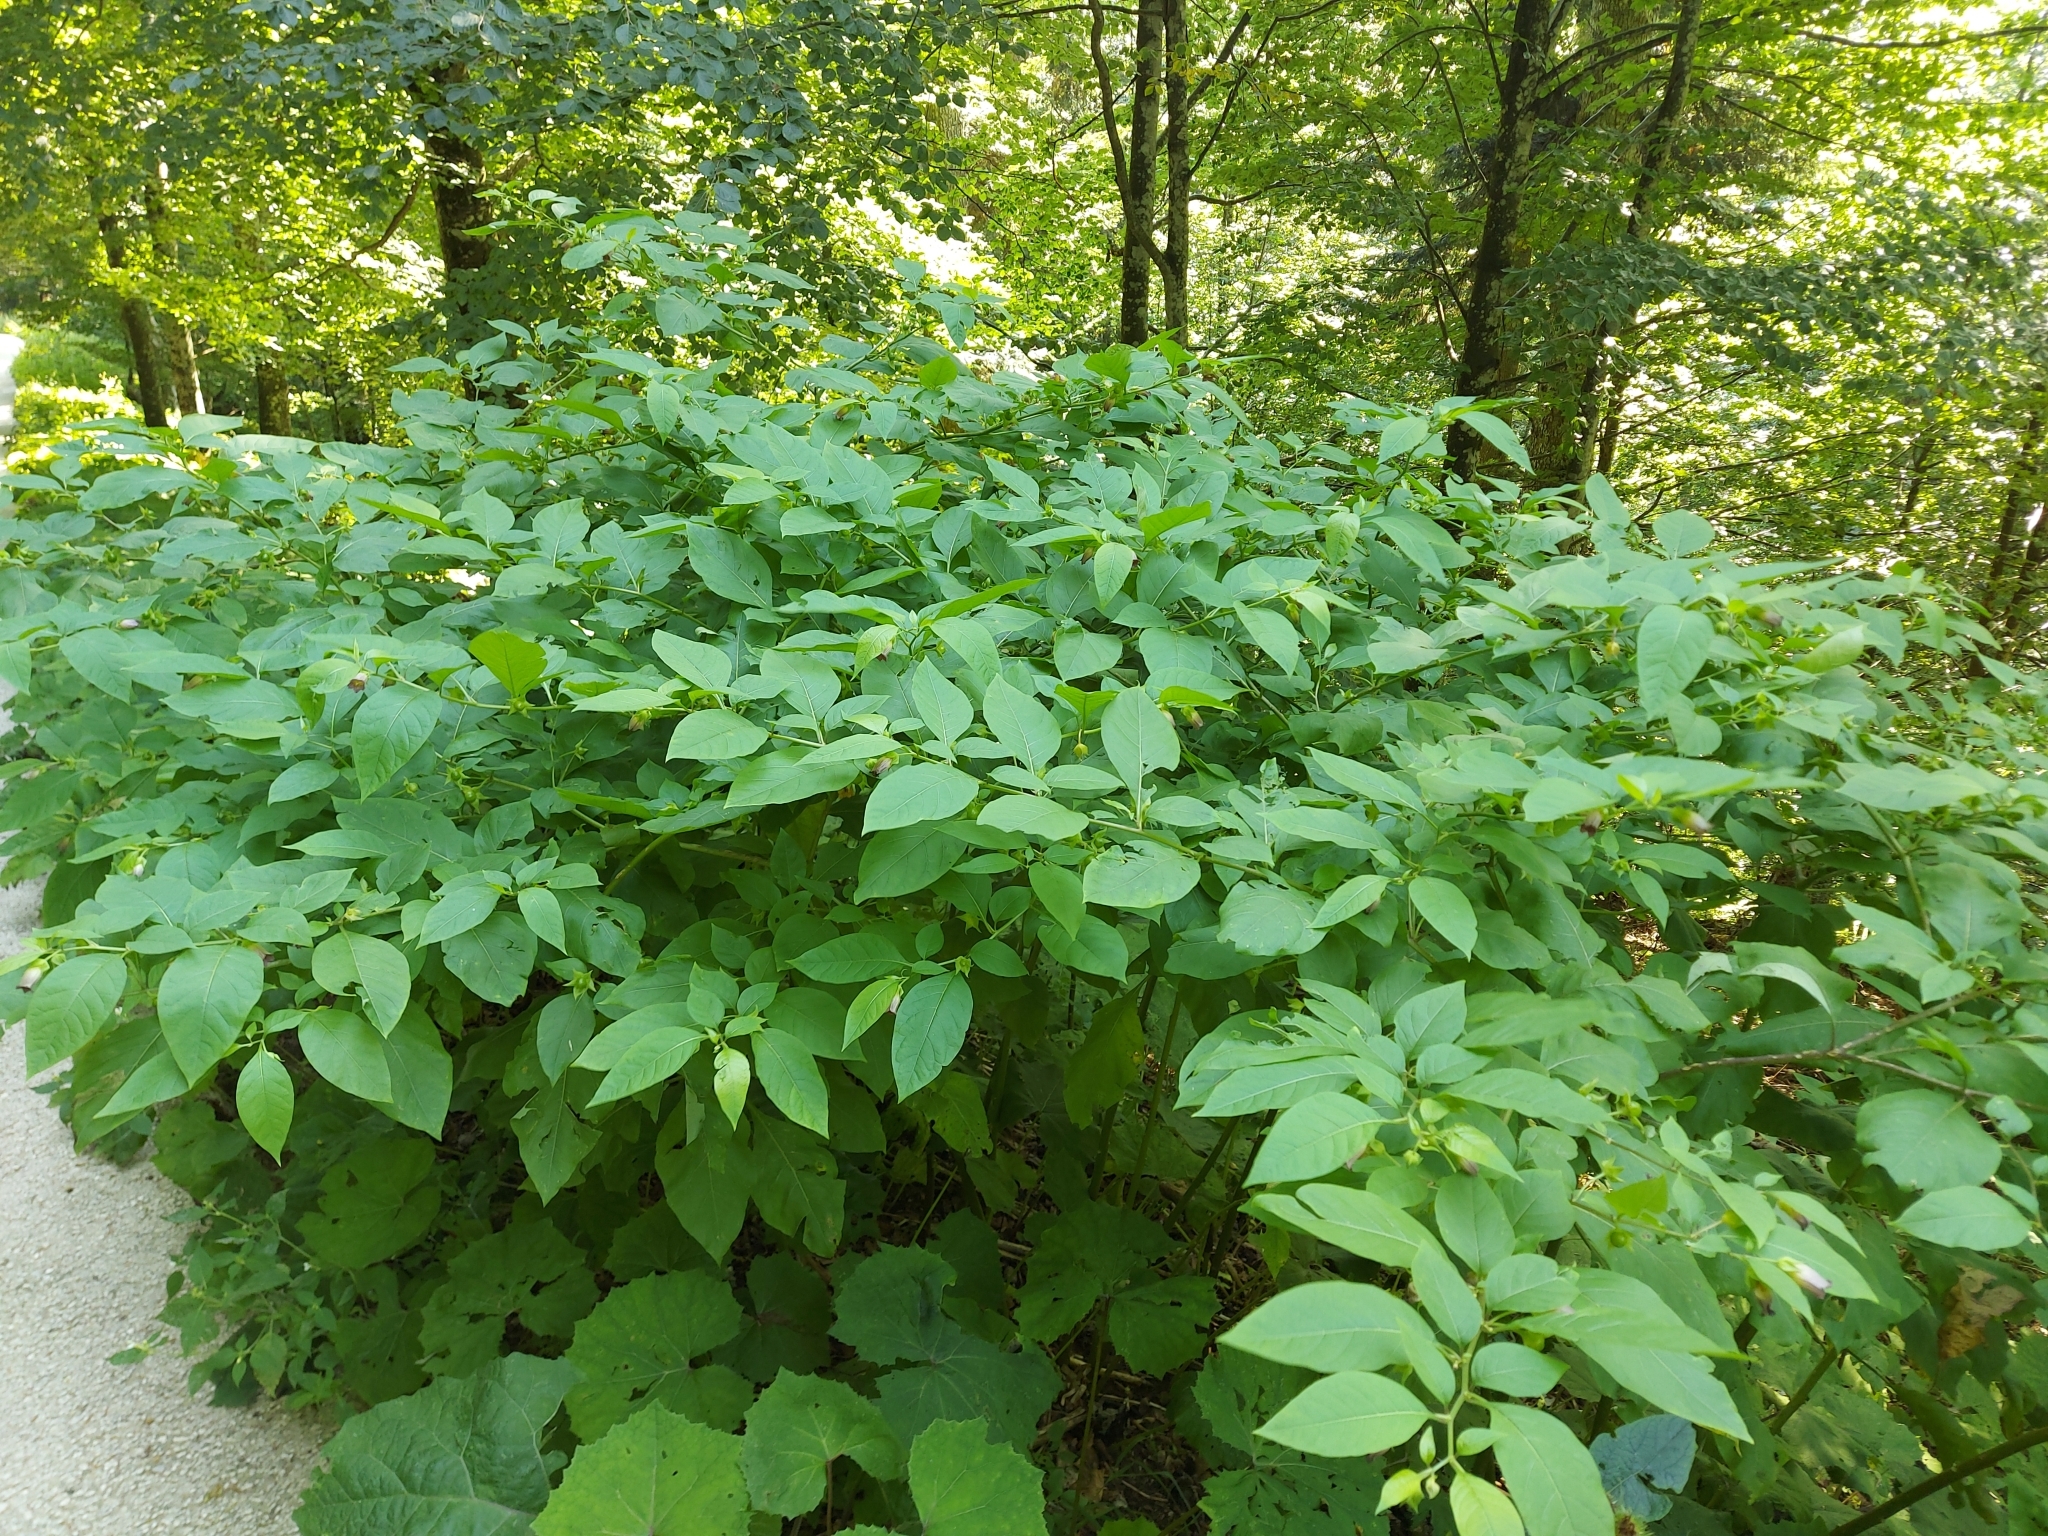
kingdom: Plantae
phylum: Tracheophyta
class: Magnoliopsida
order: Solanales
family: Solanaceae
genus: Atropa
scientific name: Atropa belladonna
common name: Deadly nightshade
